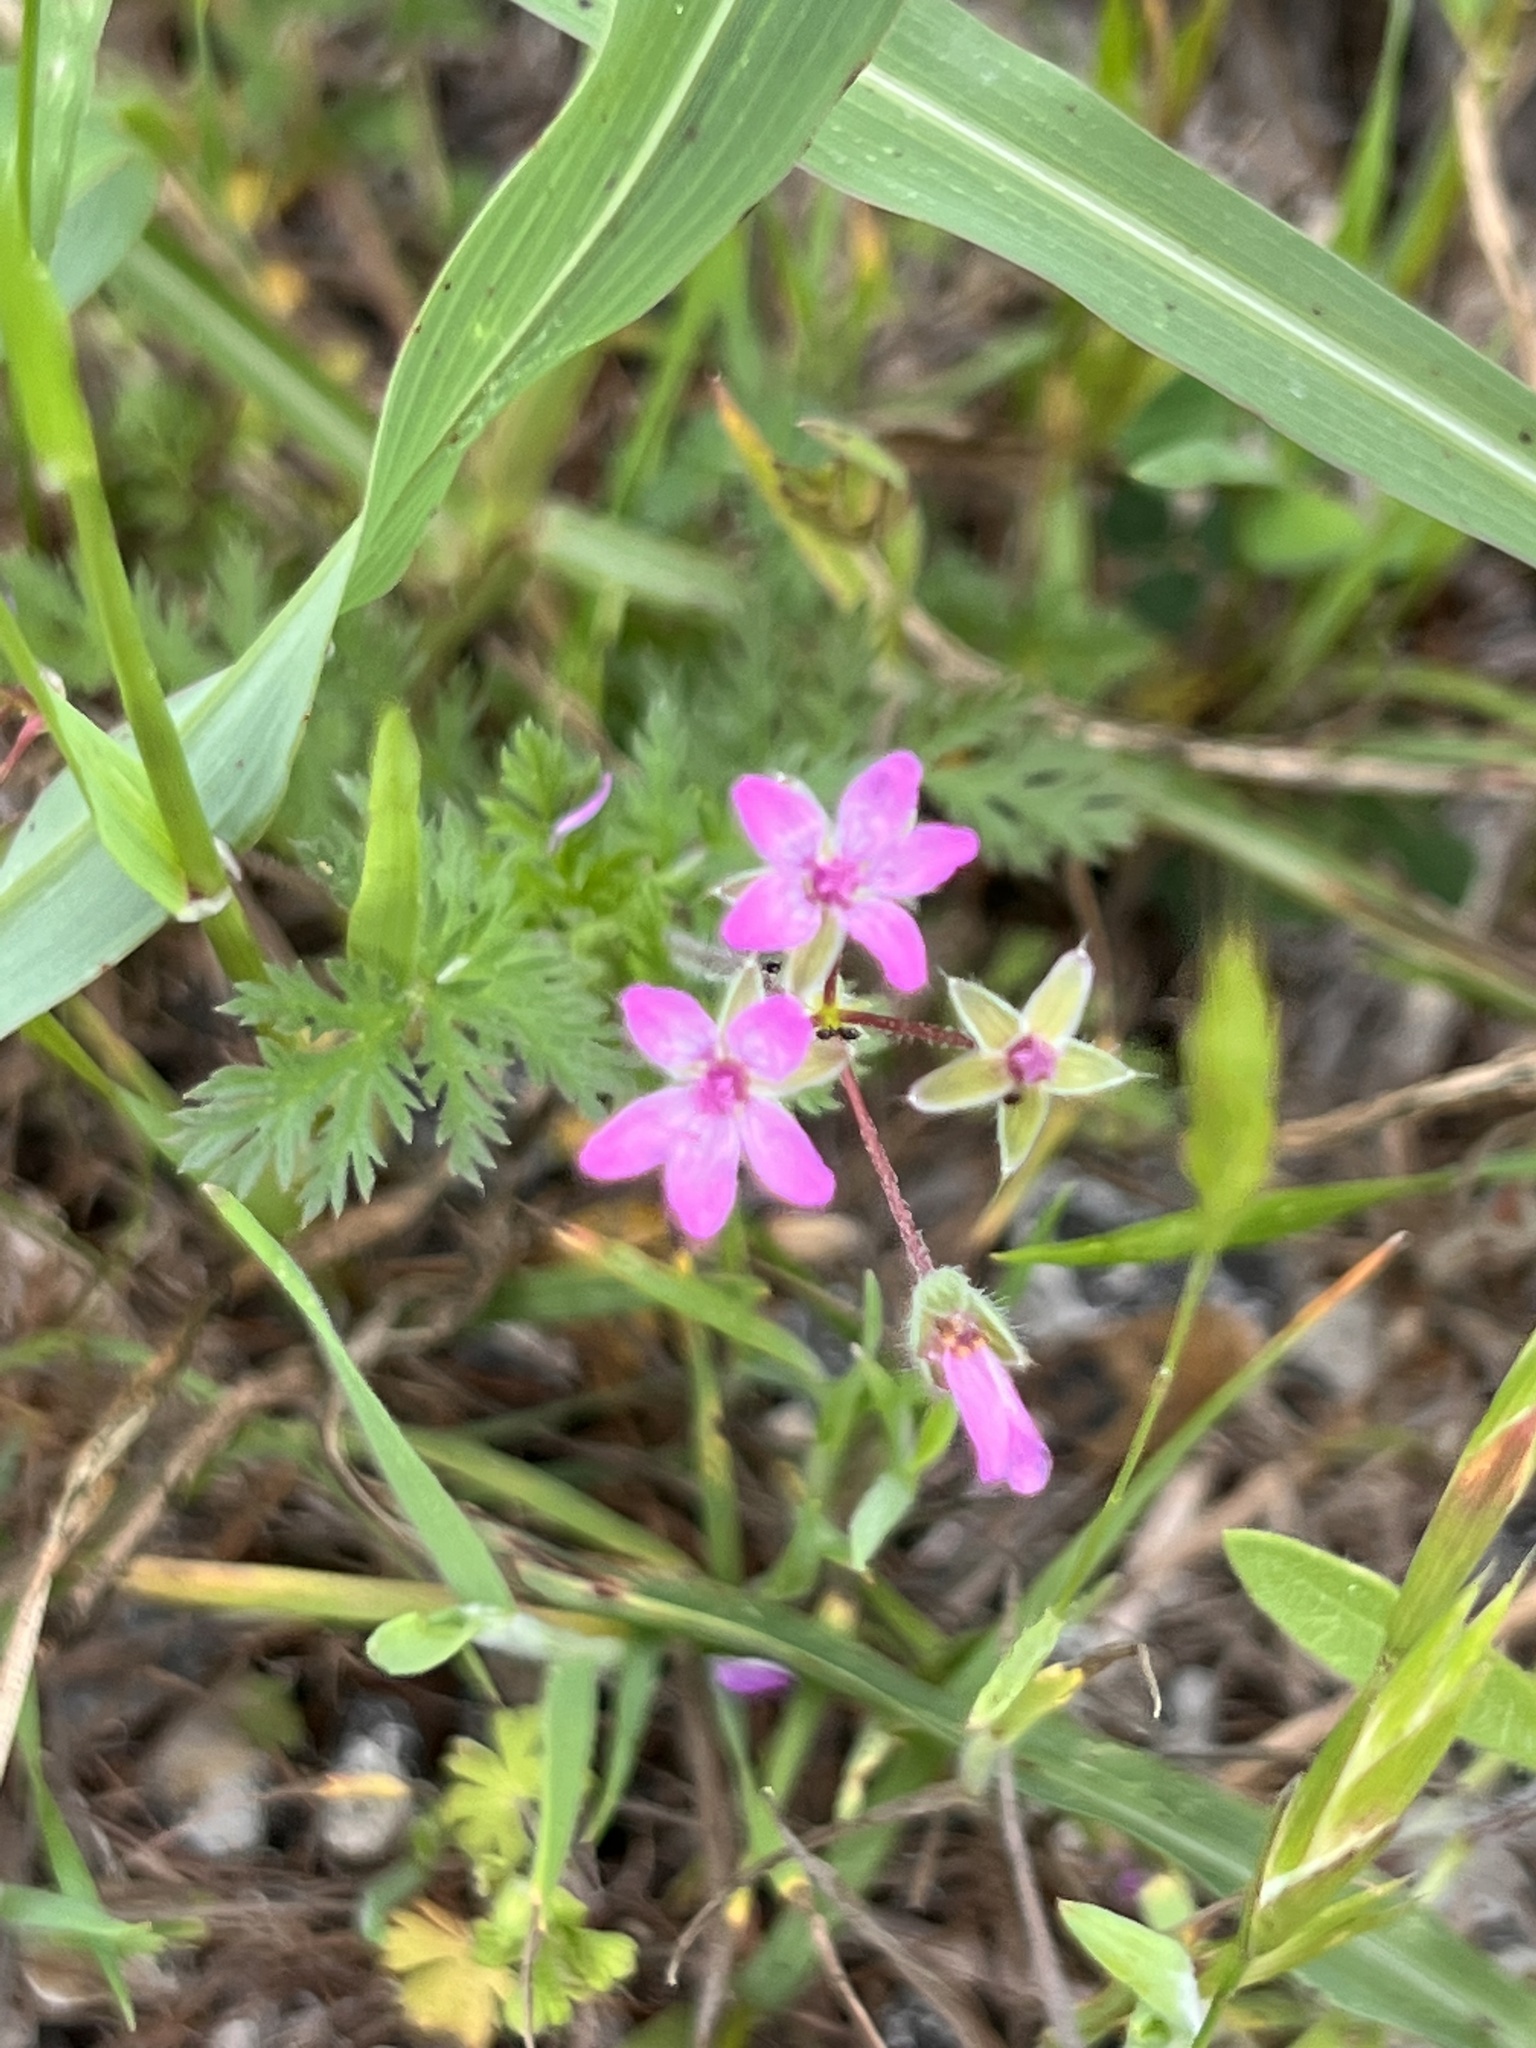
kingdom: Plantae
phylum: Tracheophyta
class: Magnoliopsida
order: Geraniales
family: Geraniaceae
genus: Erodium
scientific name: Erodium cicutarium
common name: Common stork's-bill
